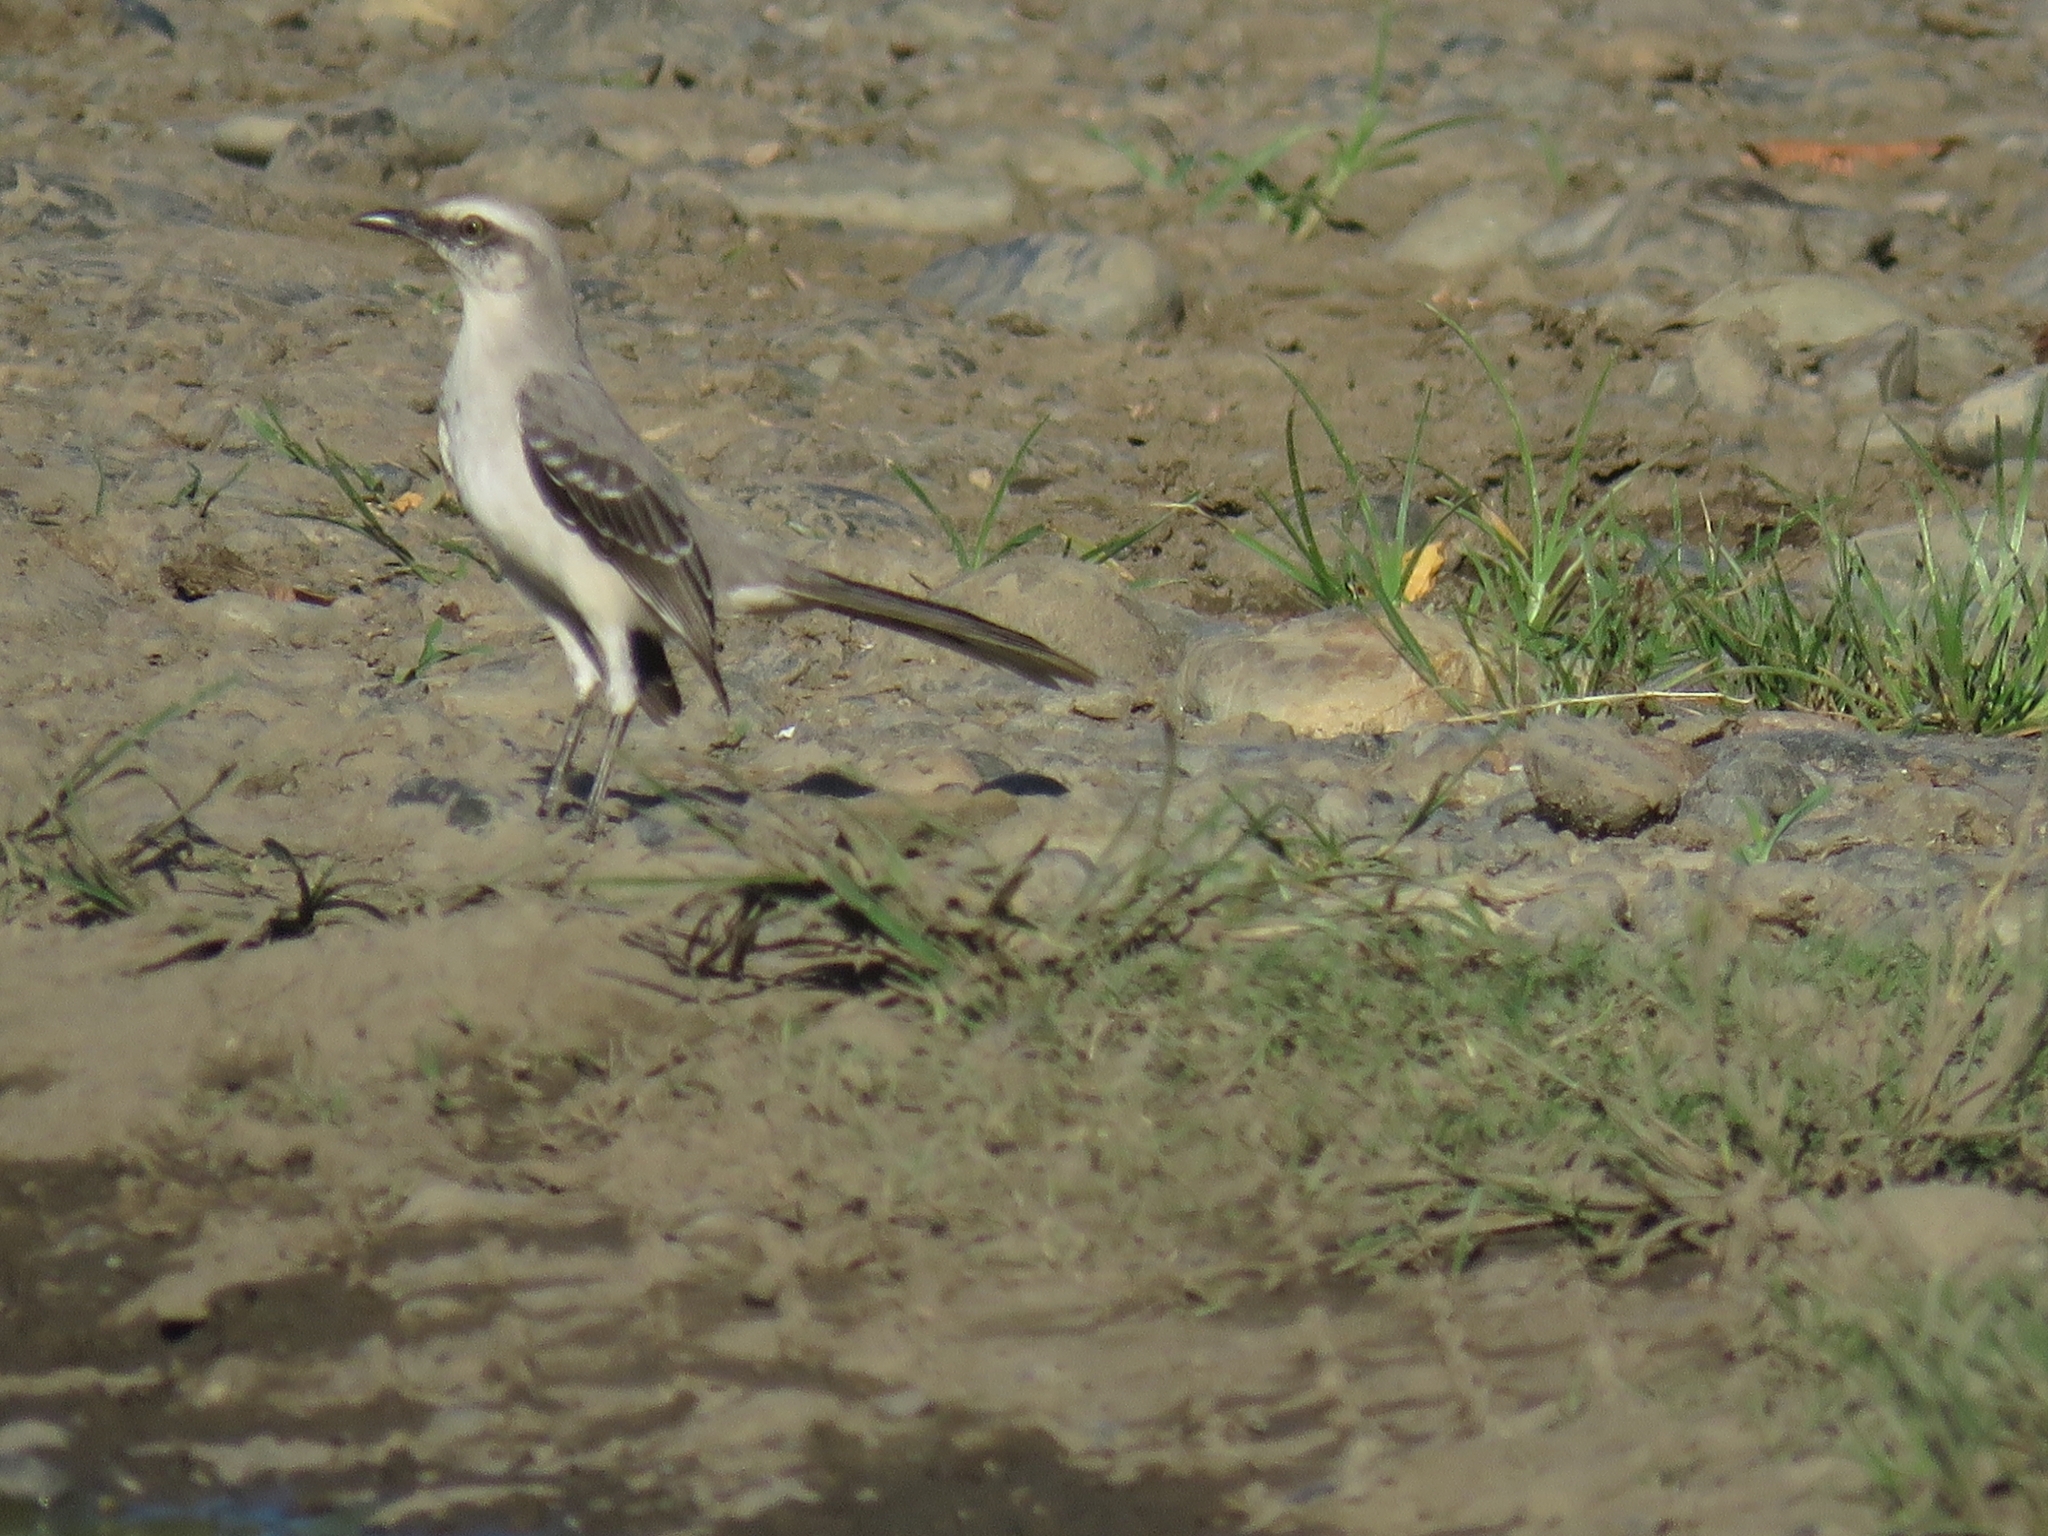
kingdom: Animalia
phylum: Chordata
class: Aves
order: Passeriformes
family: Mimidae
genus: Mimus
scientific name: Mimus gilvus
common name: Tropical mockingbird
